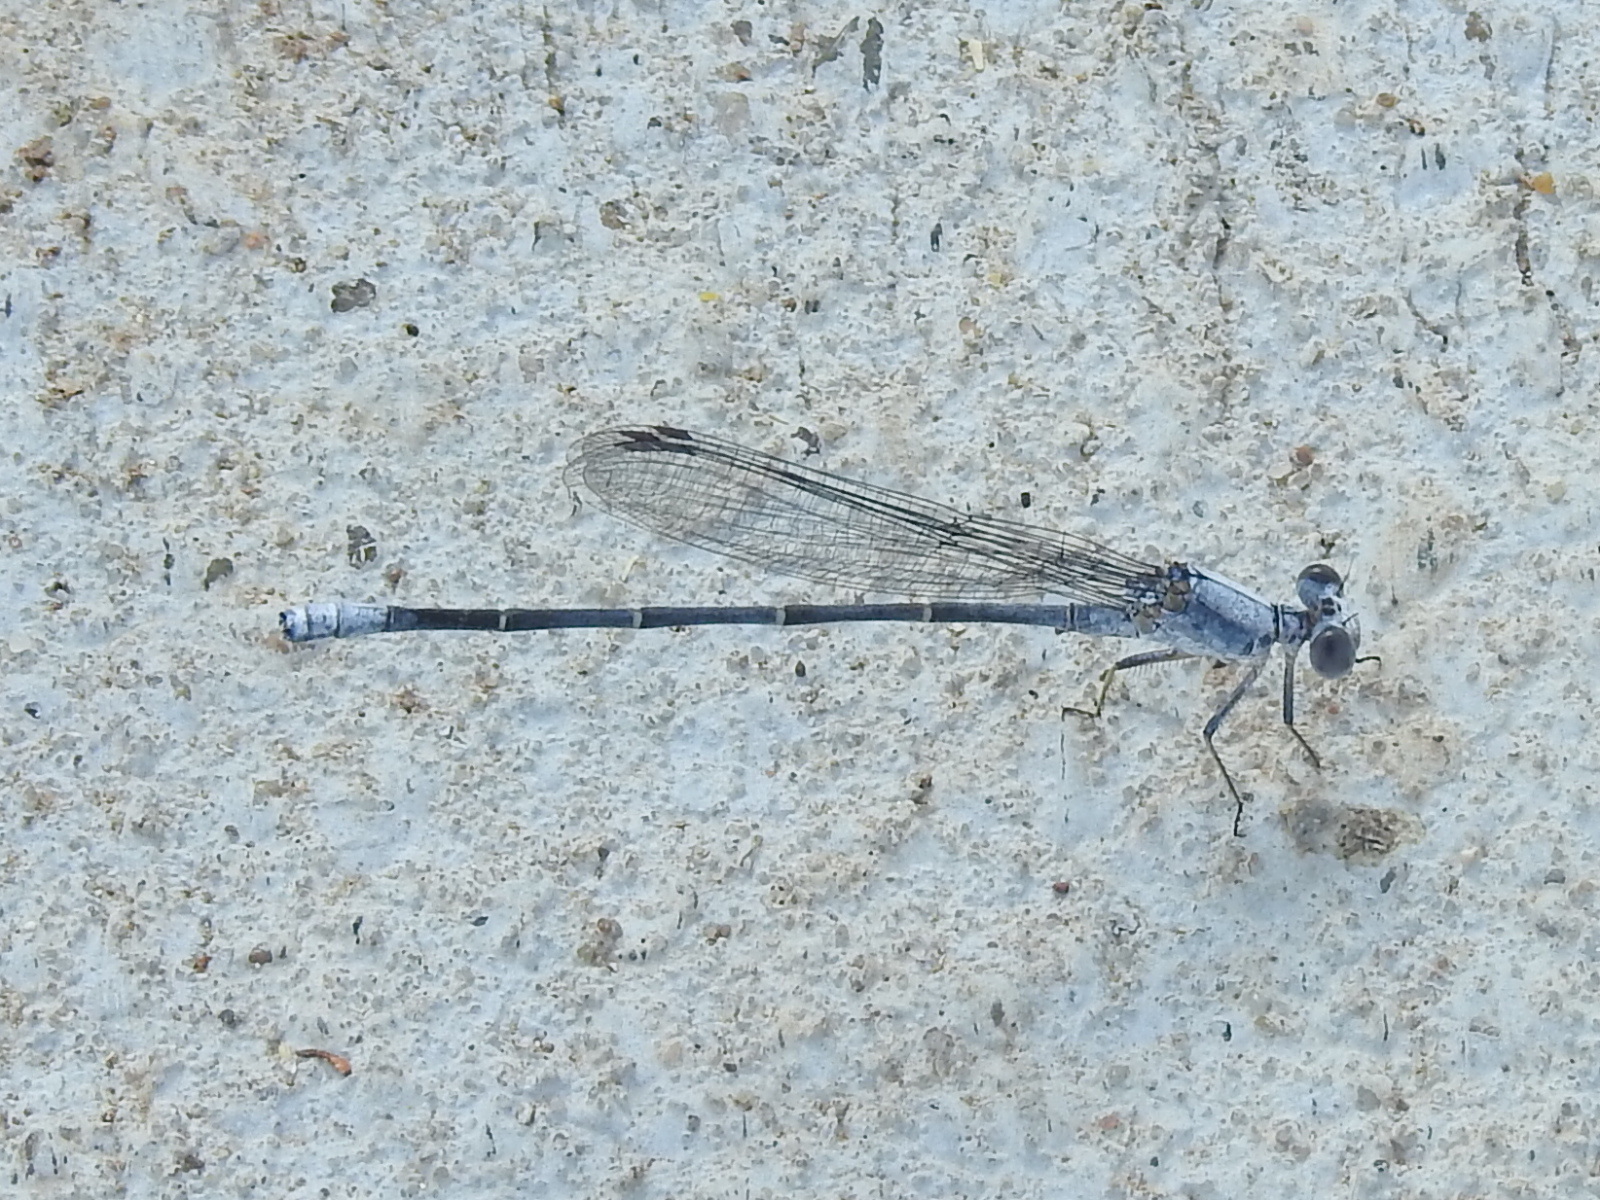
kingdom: Animalia
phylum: Arthropoda
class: Insecta
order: Odonata
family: Coenagrionidae
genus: Argia
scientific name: Argia moesta
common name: Powdered dancer
